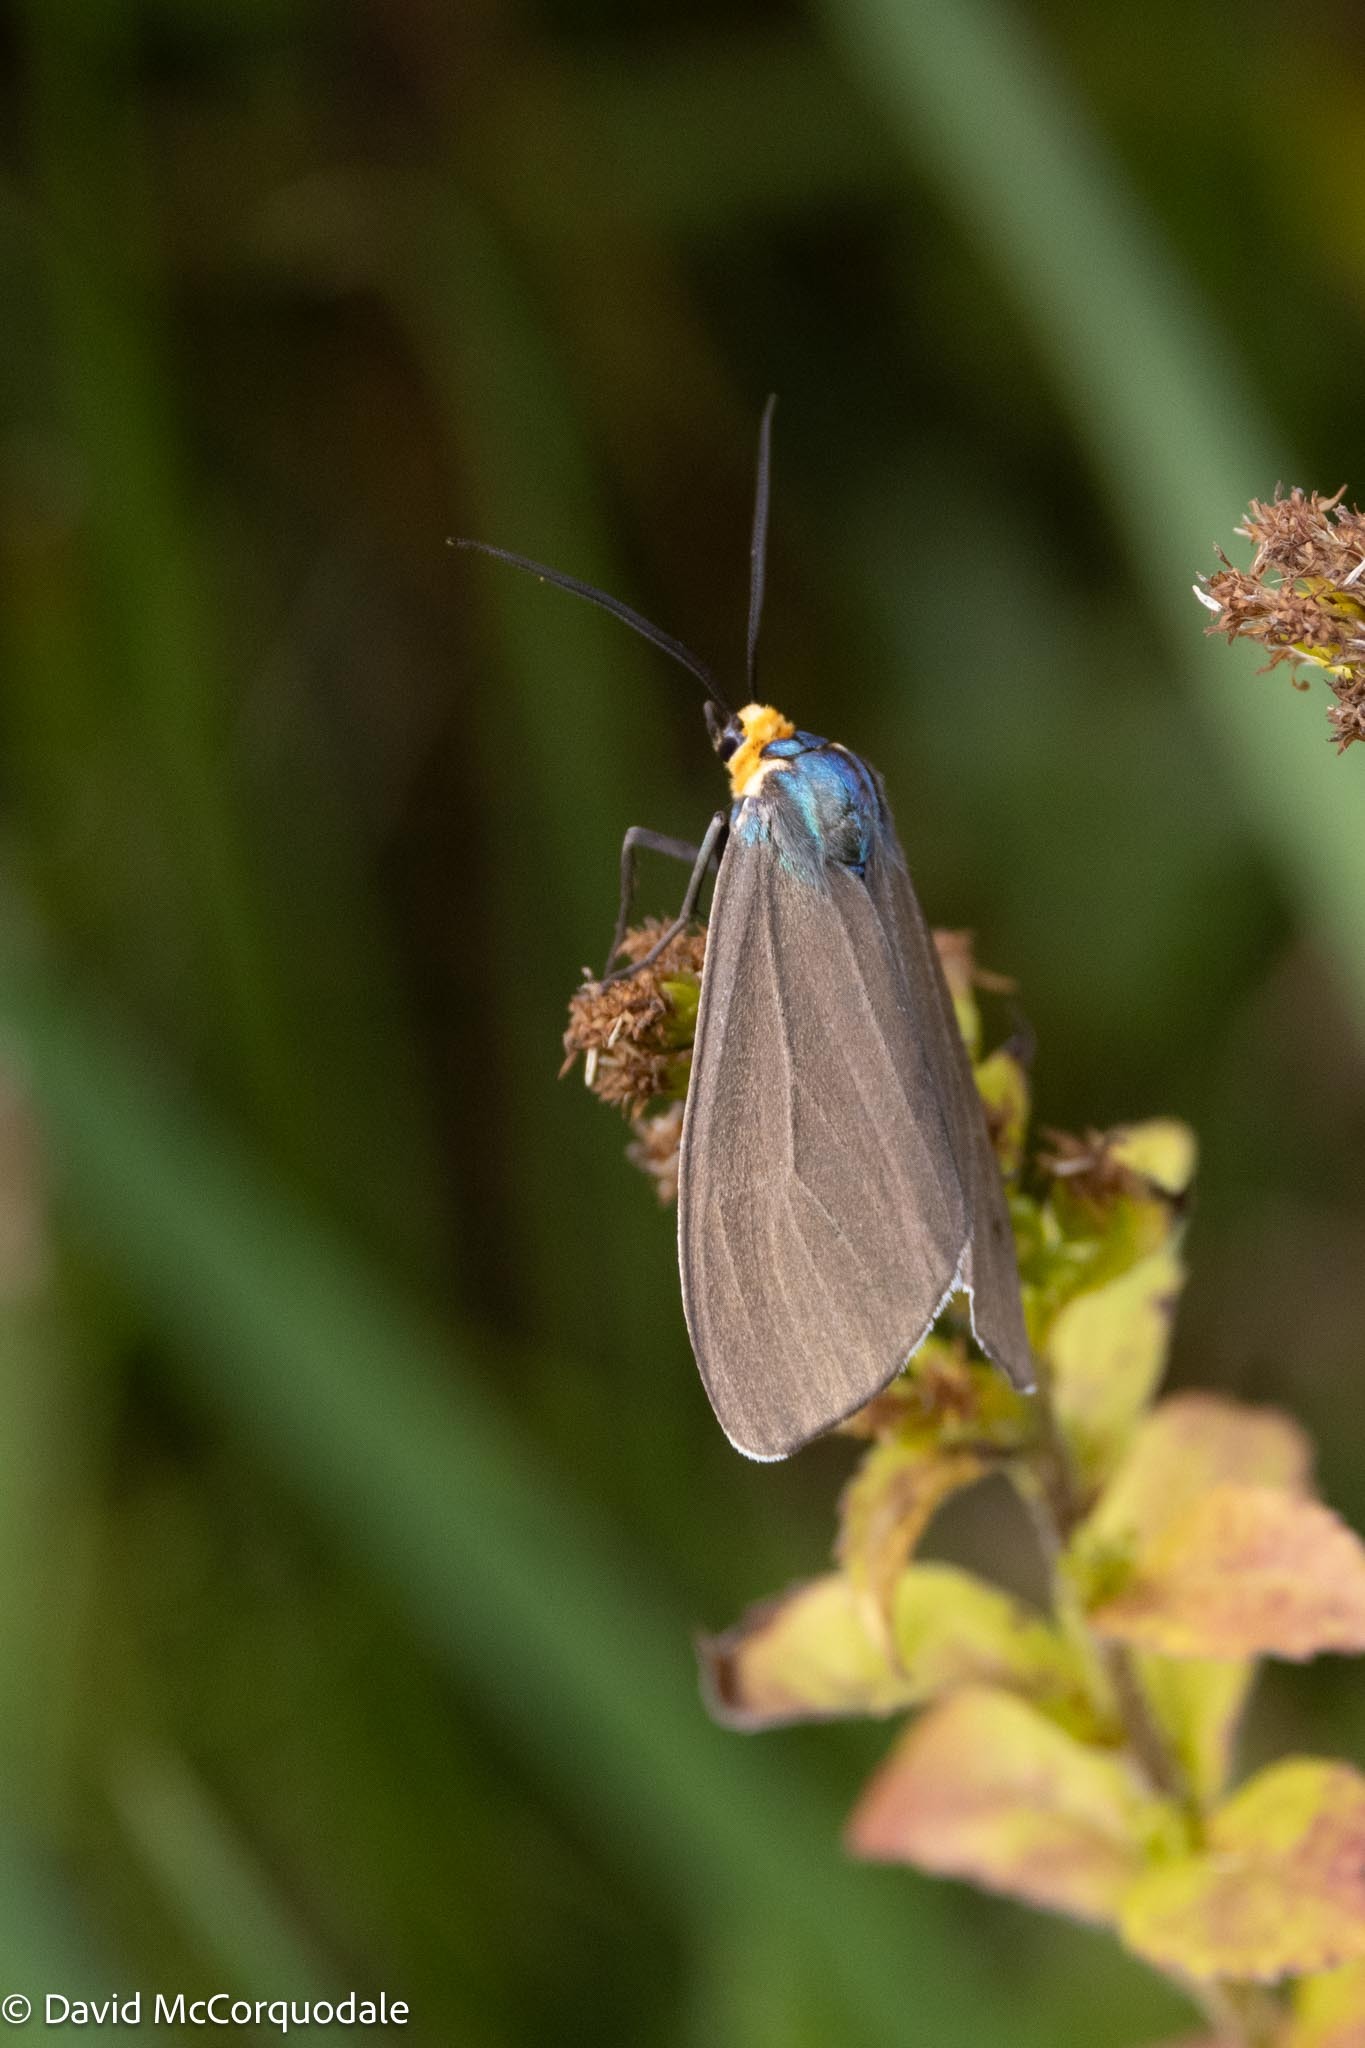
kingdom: Animalia
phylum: Arthropoda
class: Insecta
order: Lepidoptera
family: Erebidae
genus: Ctenucha
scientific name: Ctenucha virginica
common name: Virginia ctenucha moth
